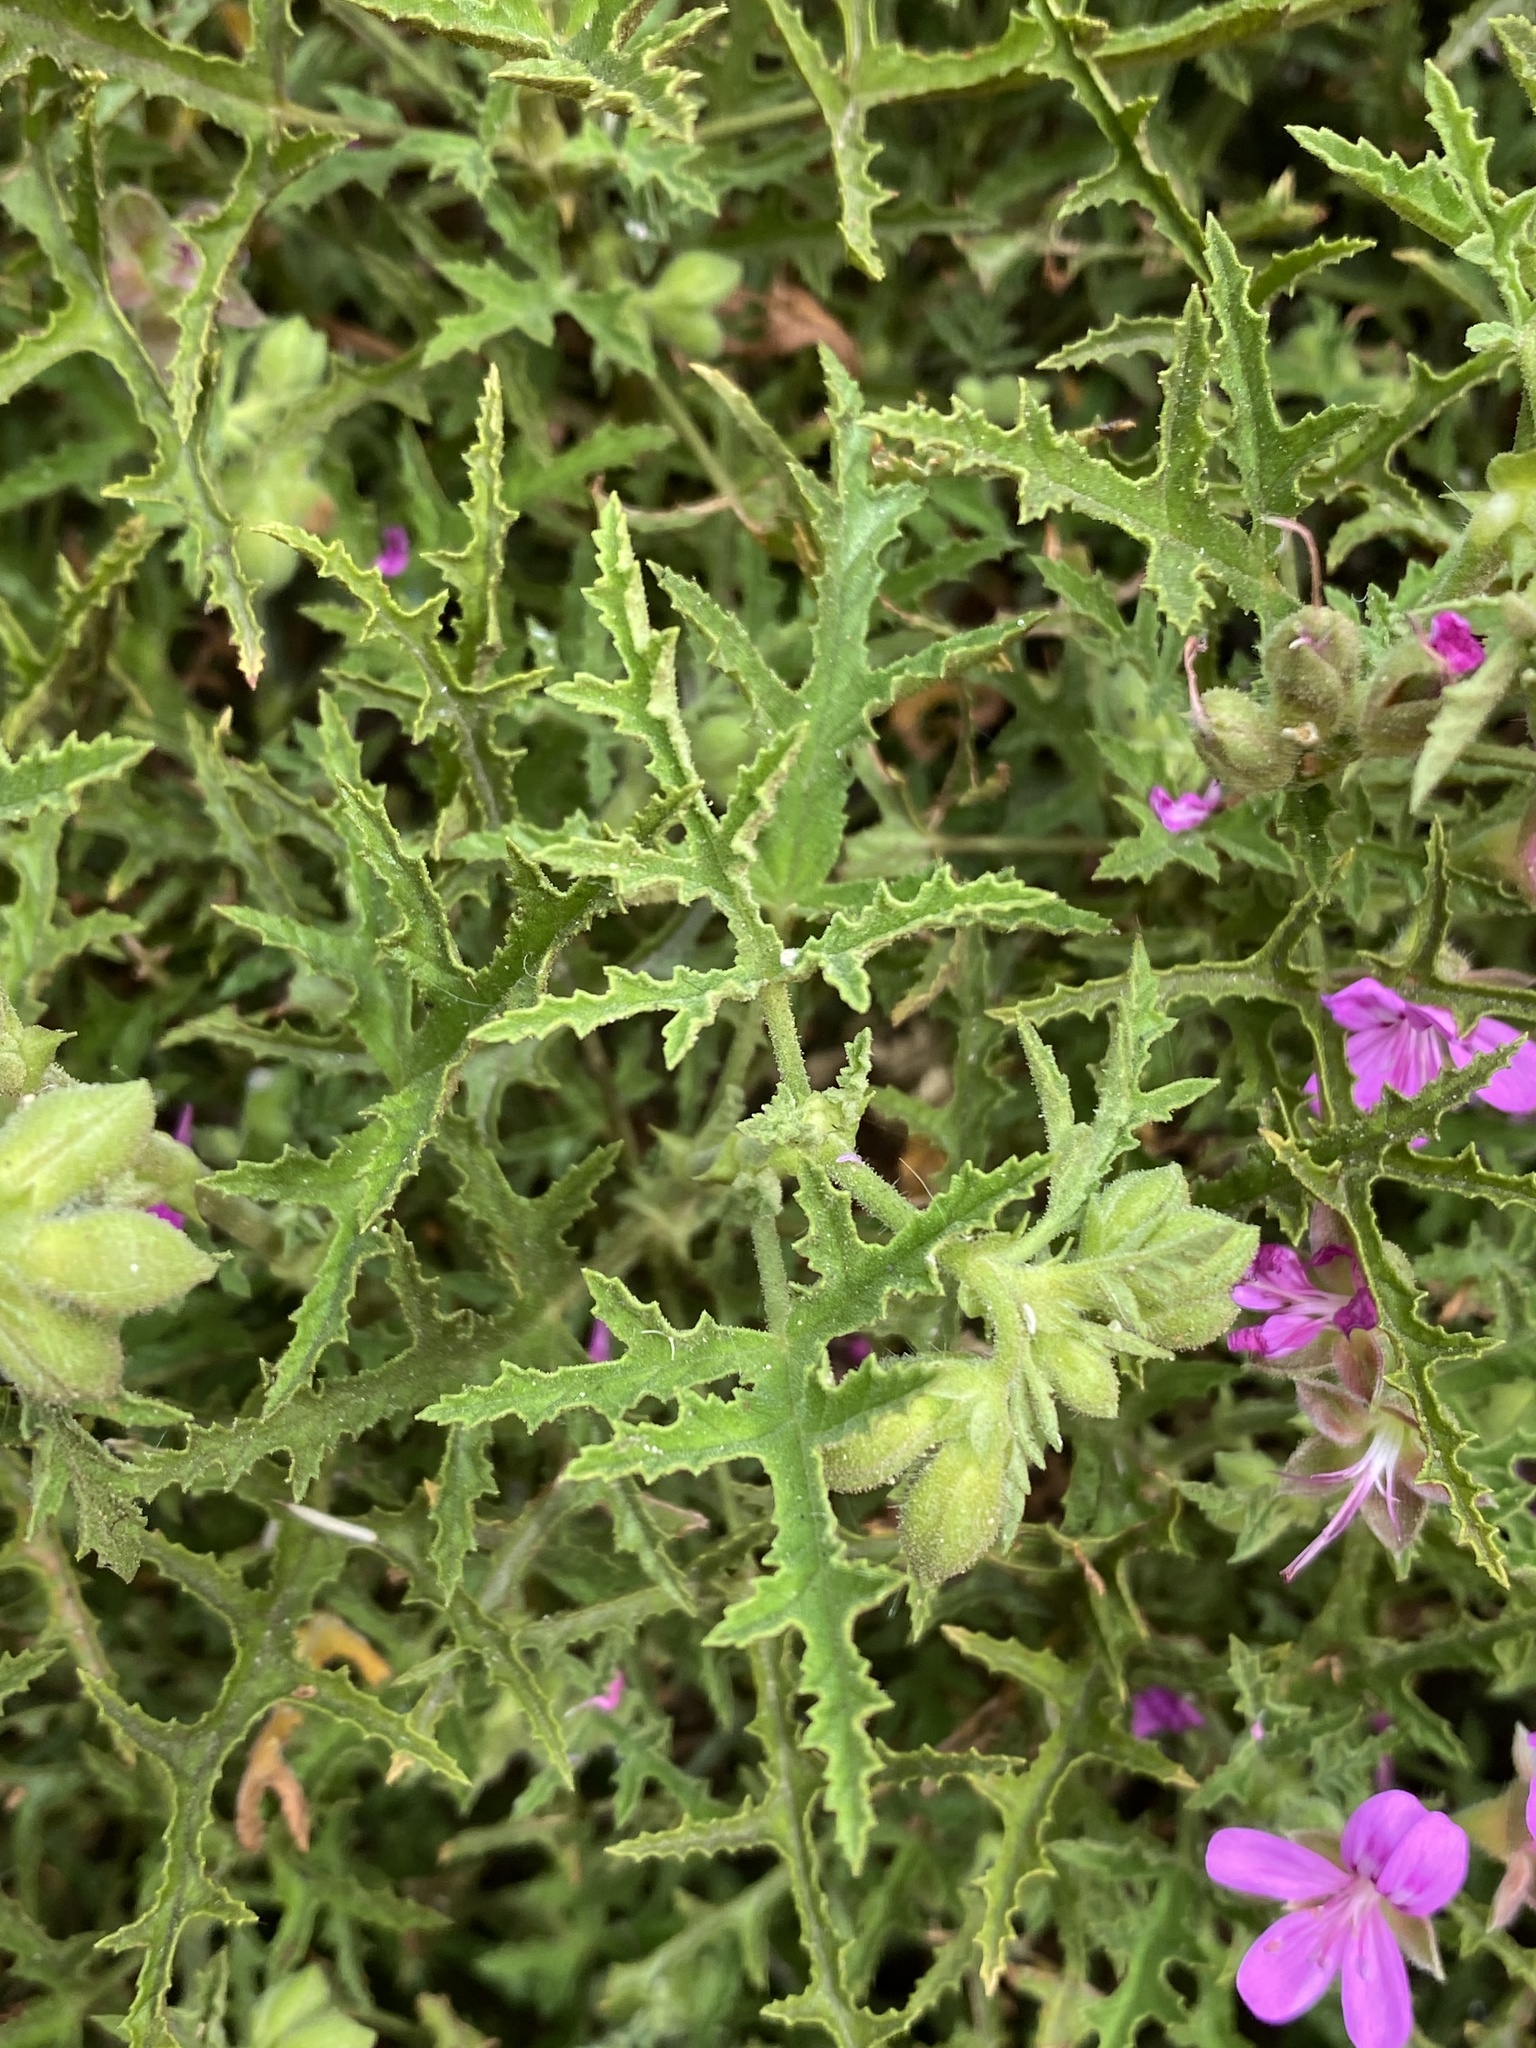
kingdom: Plantae
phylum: Tracheophyta
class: Magnoliopsida
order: Geraniales
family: Geraniaceae
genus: Pelargonium
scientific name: Pelargonium glutinosum
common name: Pheasant-foot geranium
